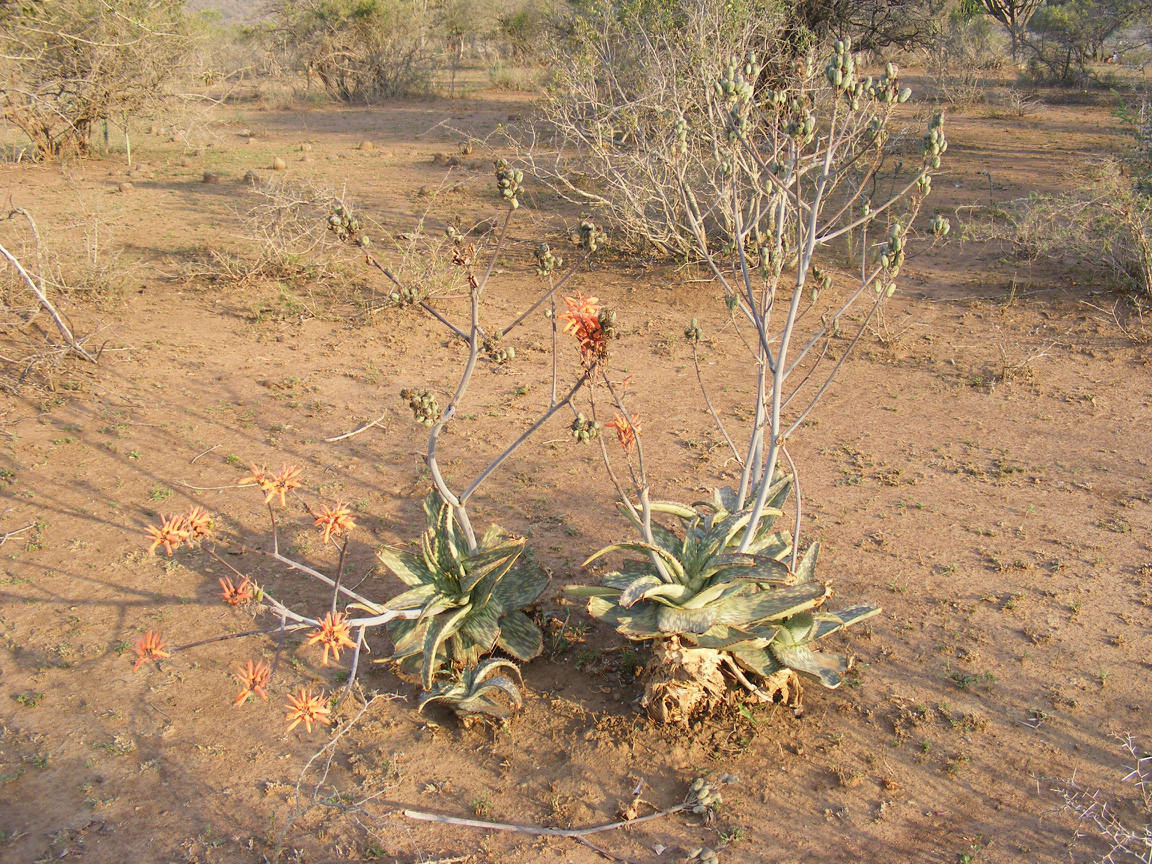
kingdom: Plantae
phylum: Tracheophyta
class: Liliopsida
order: Asparagales
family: Asphodelaceae
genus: Aloe
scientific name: Aloe umfoloziensis
